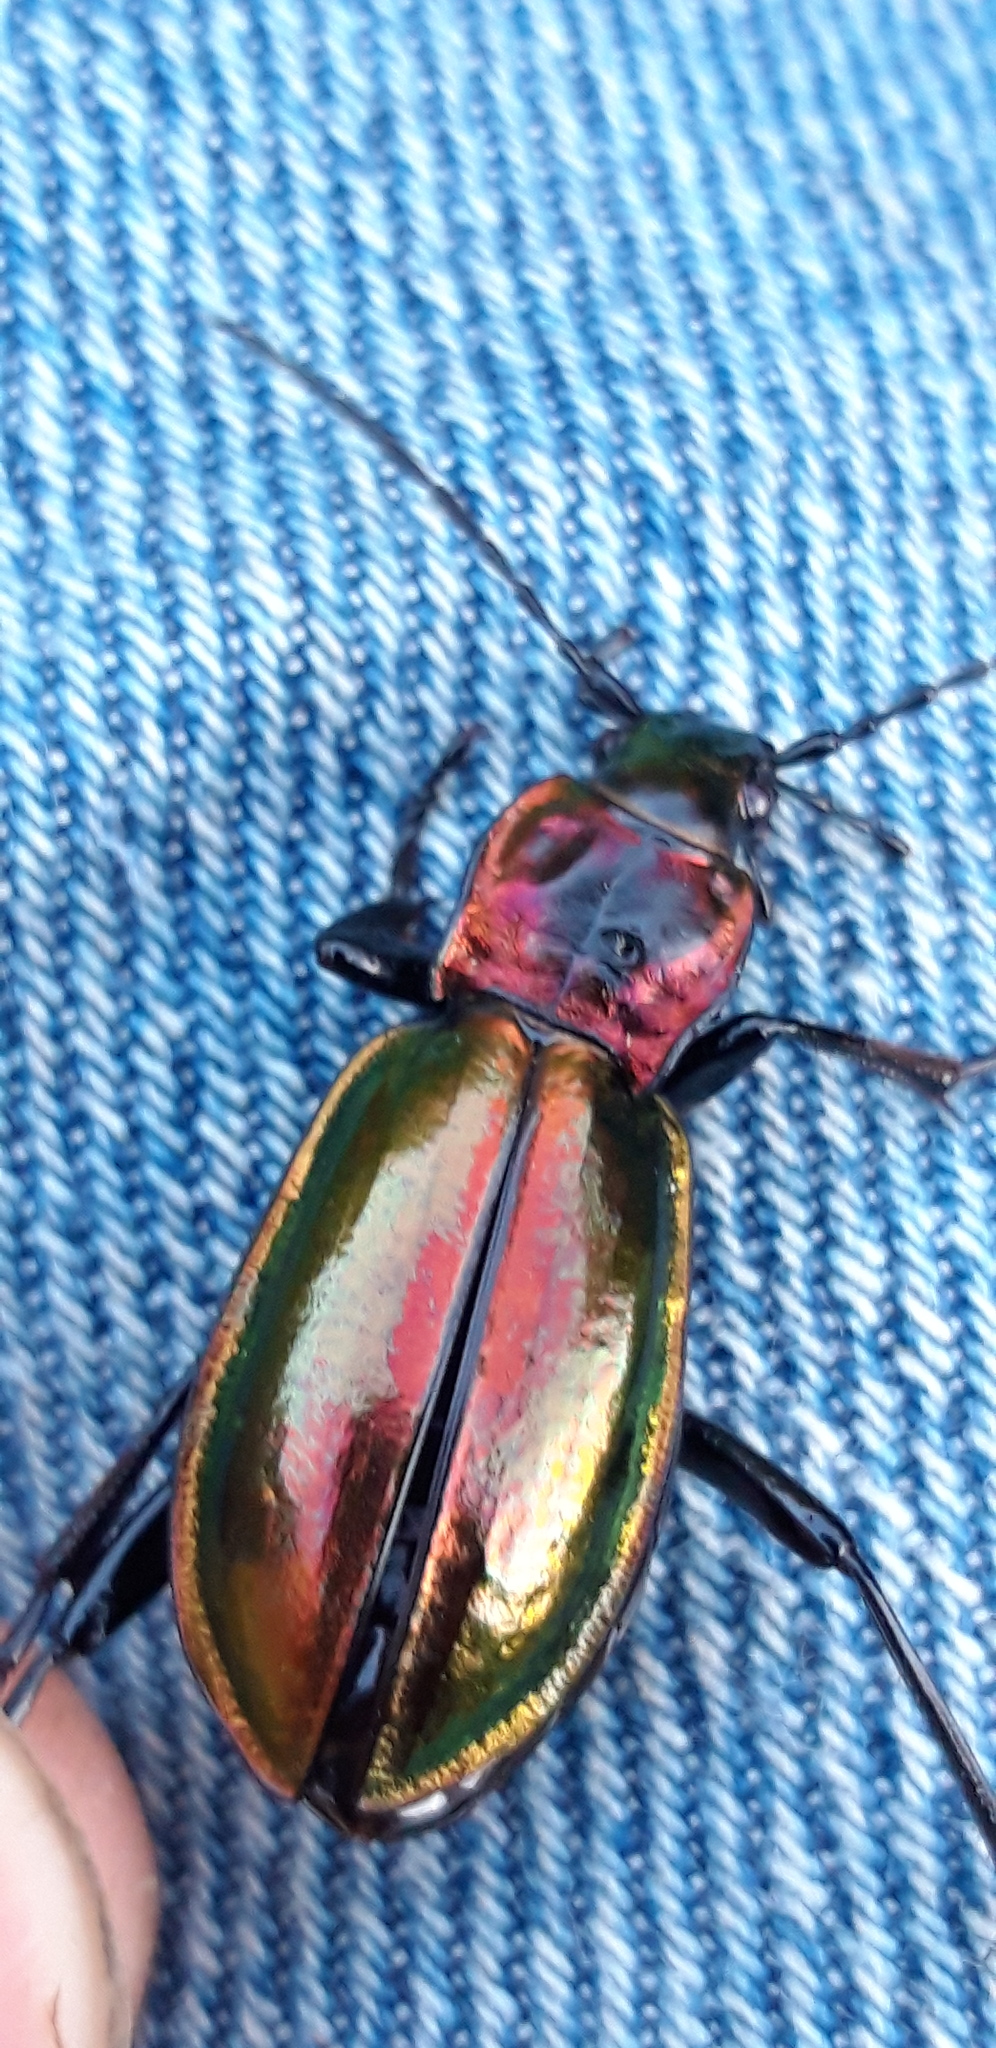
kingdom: Animalia
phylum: Arthropoda
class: Insecta
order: Coleoptera
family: Carabidae
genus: Carabus
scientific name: Carabus splendens
